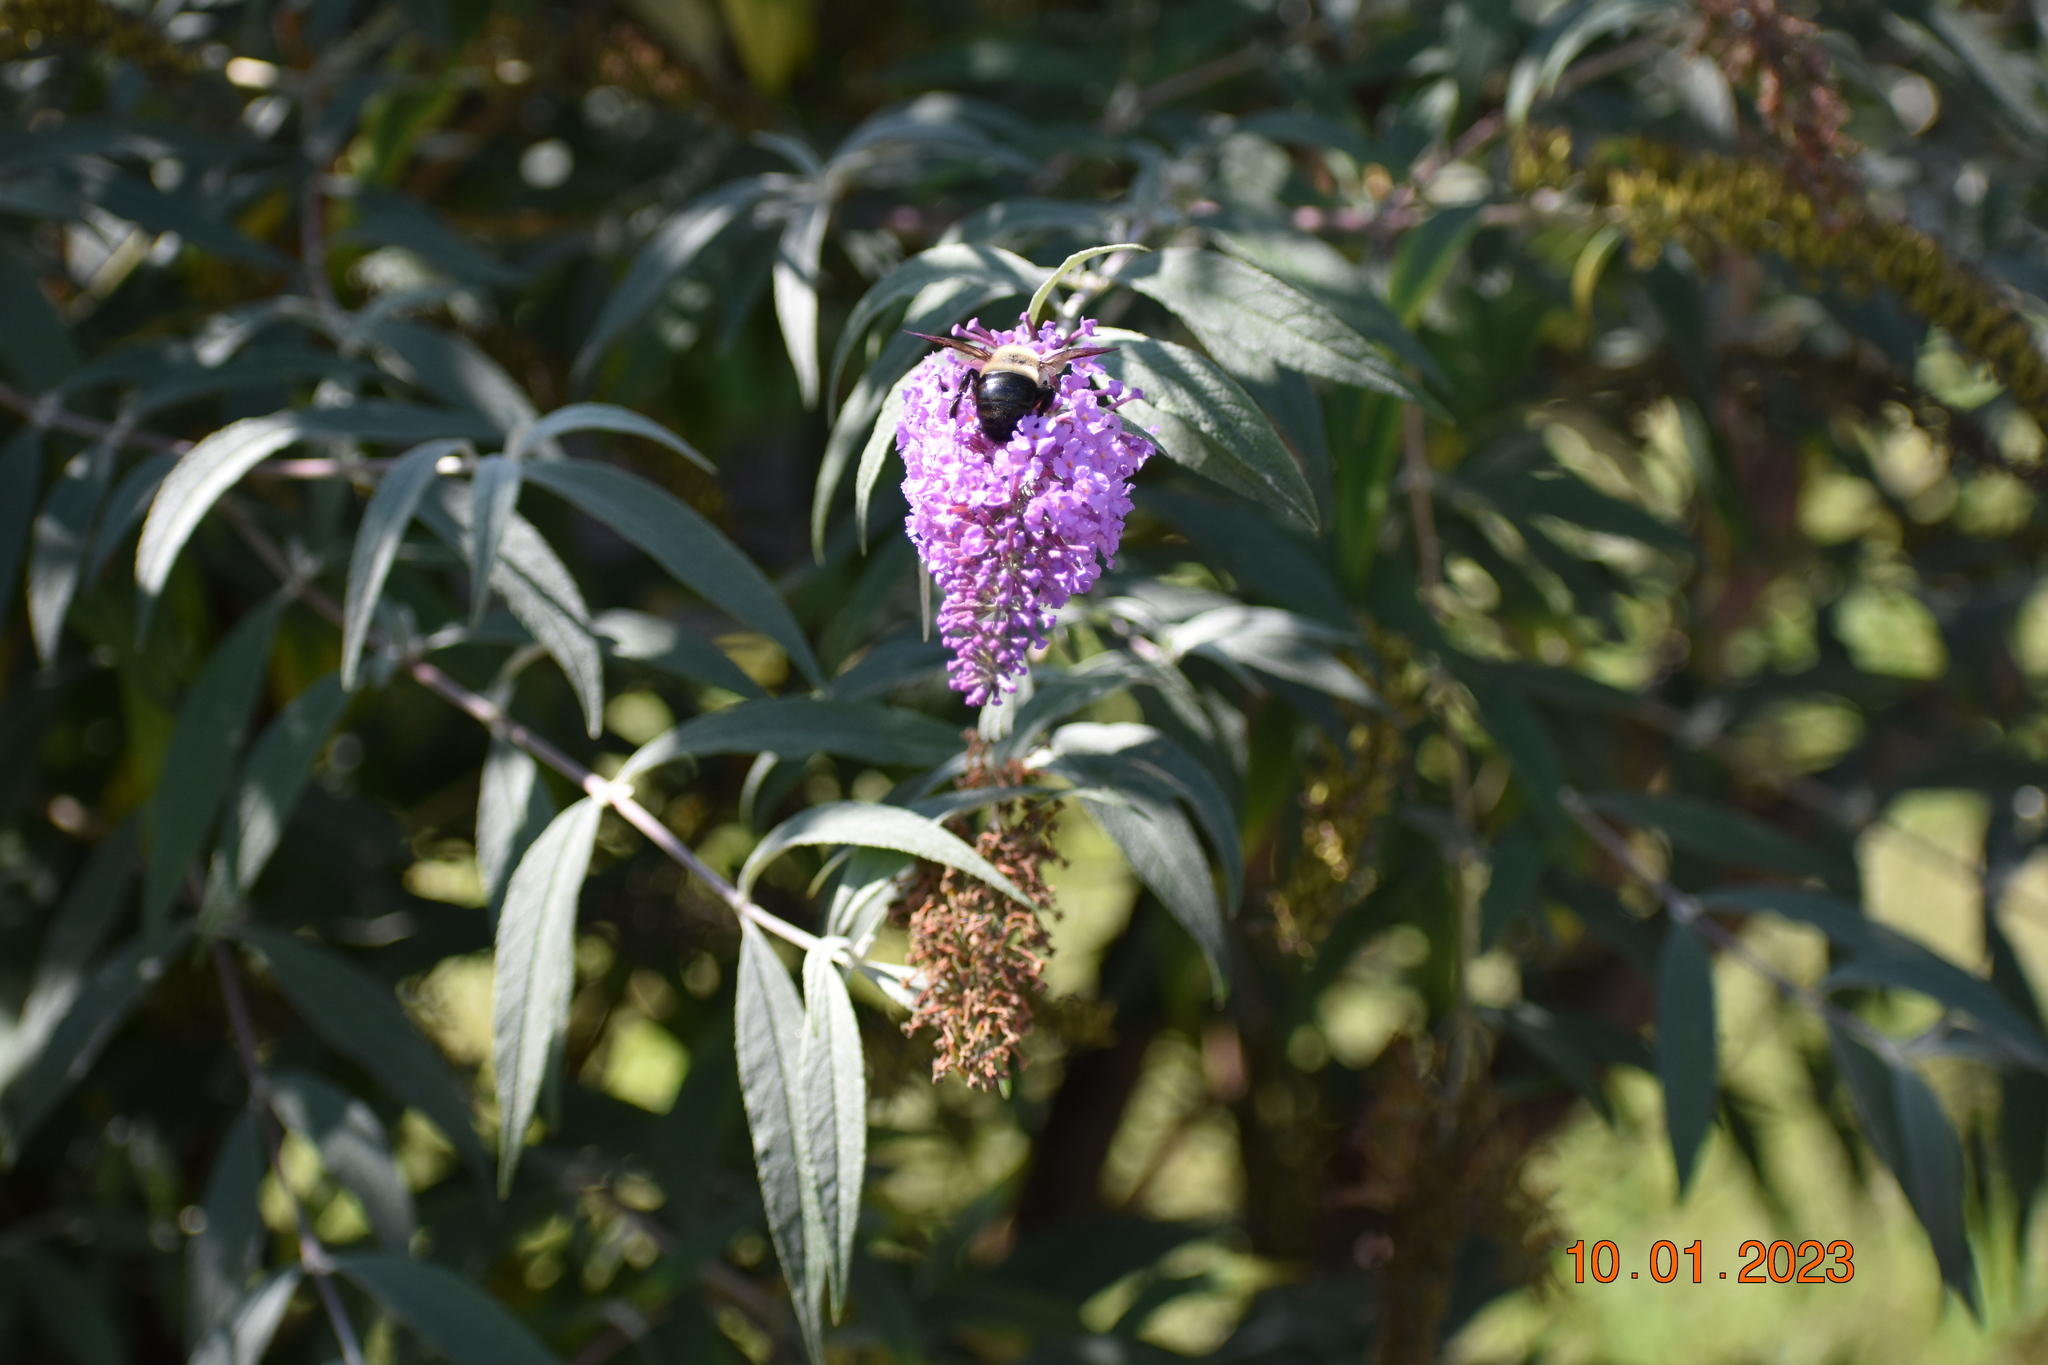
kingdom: Animalia
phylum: Arthropoda
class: Insecta
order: Hymenoptera
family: Apidae
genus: Xylocopa
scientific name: Xylocopa virginica
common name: Carpenter bee
